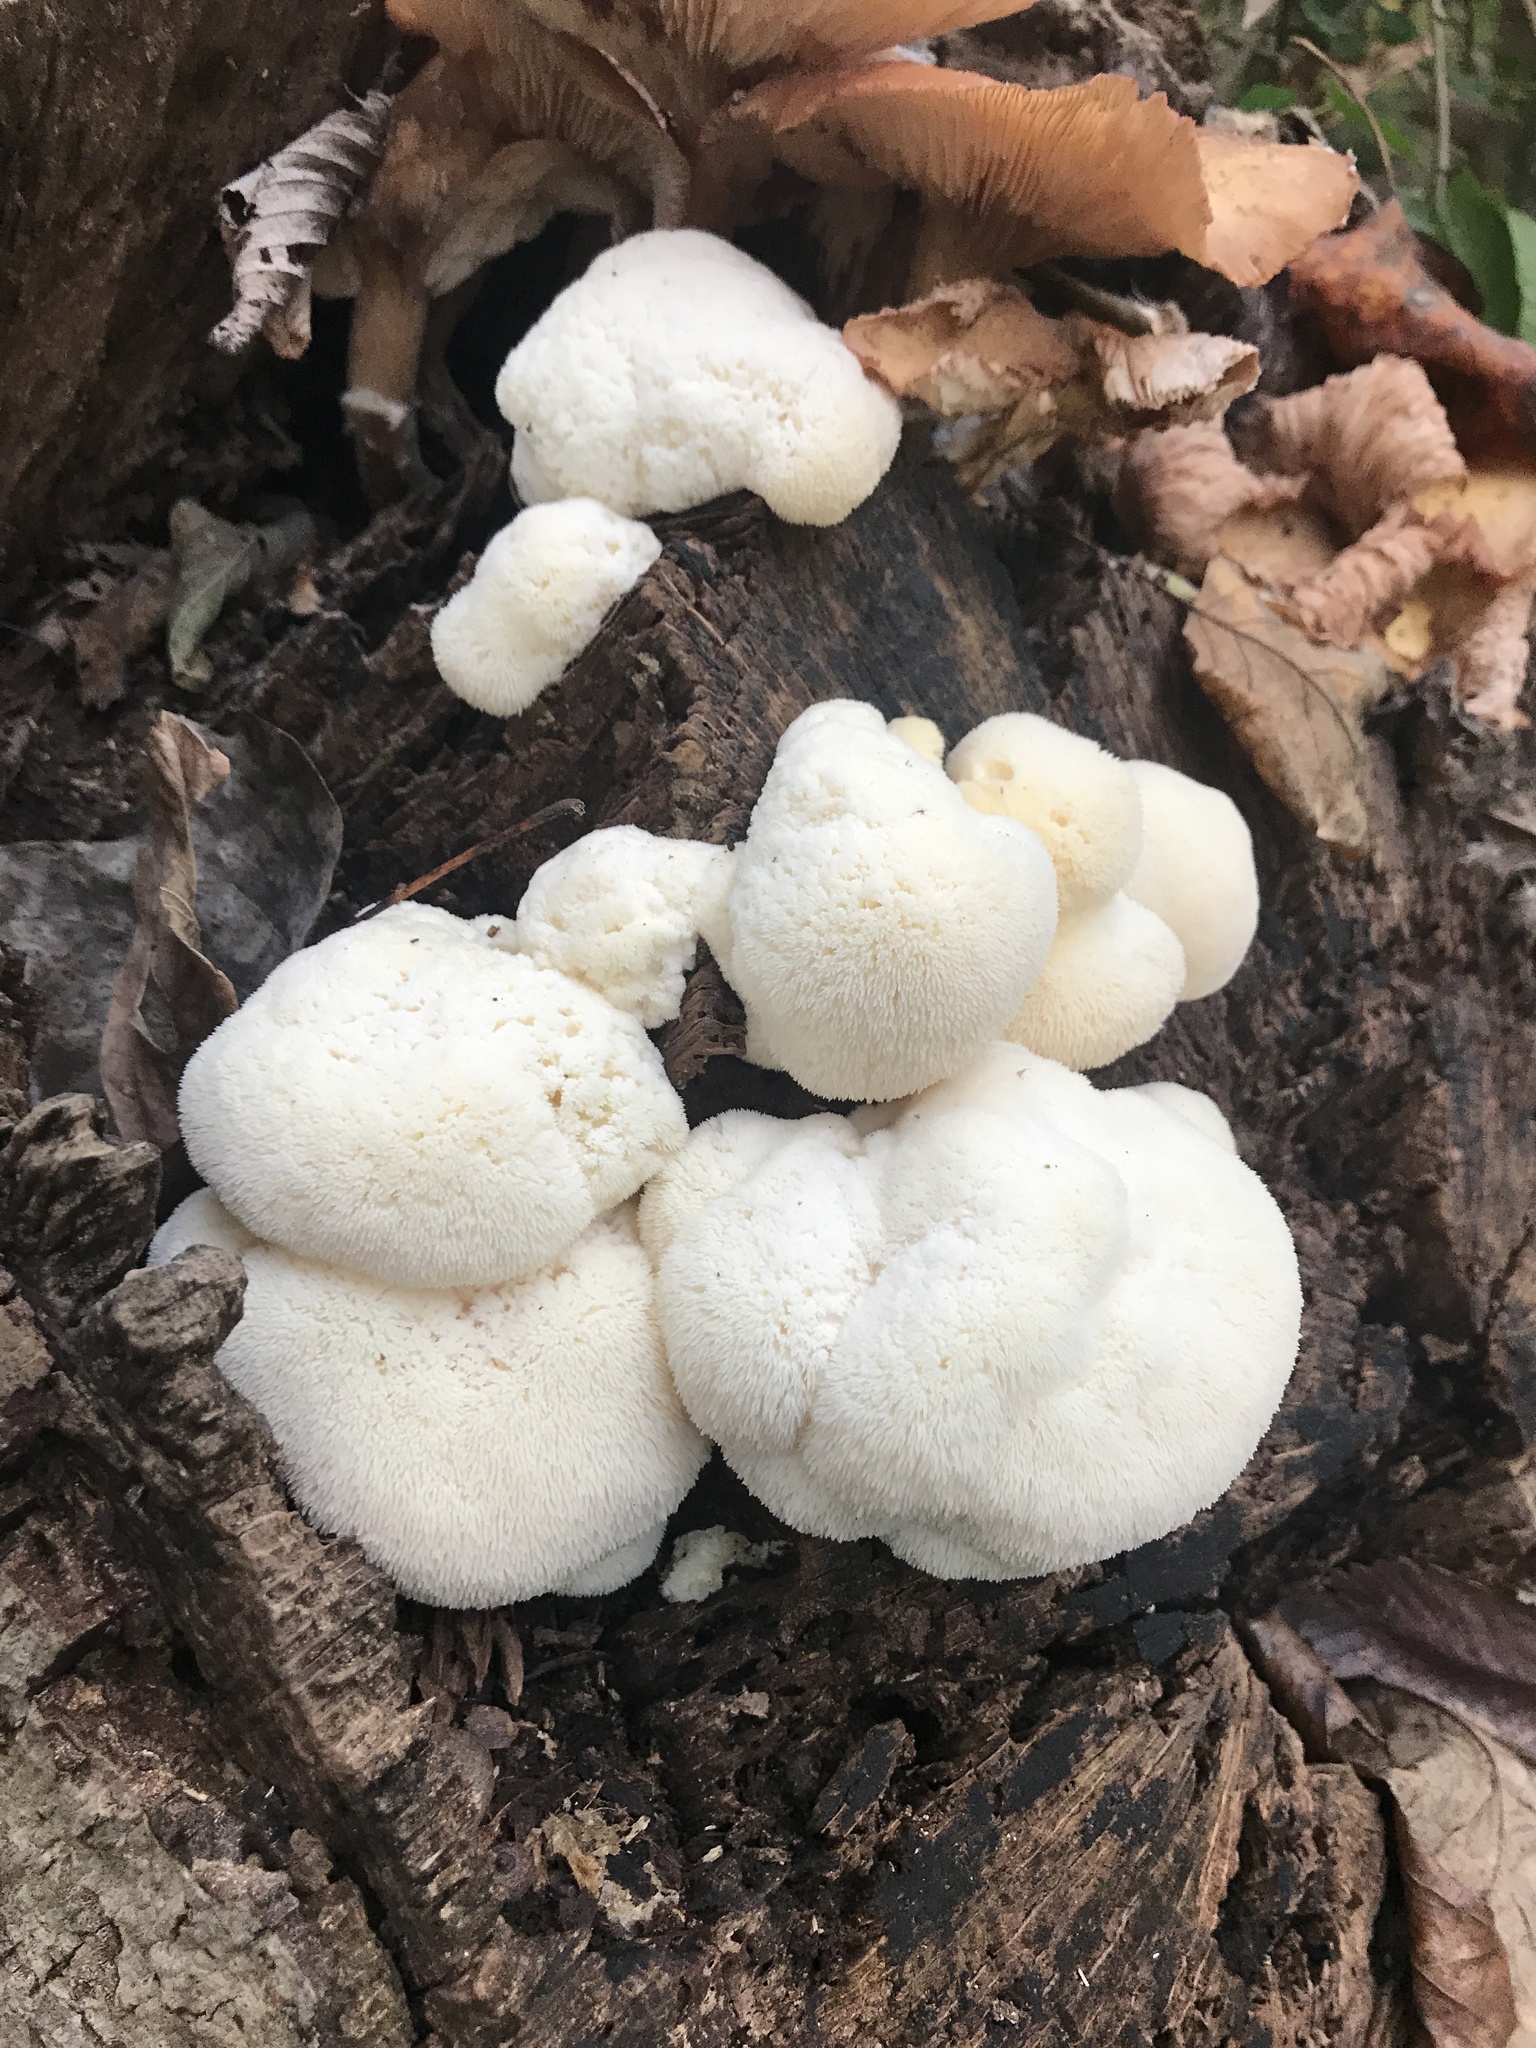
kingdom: Fungi
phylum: Basidiomycota
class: Agaricomycetes
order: Russulales
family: Hericiaceae
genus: Hericium
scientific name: Hericium erinaceus
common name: Bearded tooth
